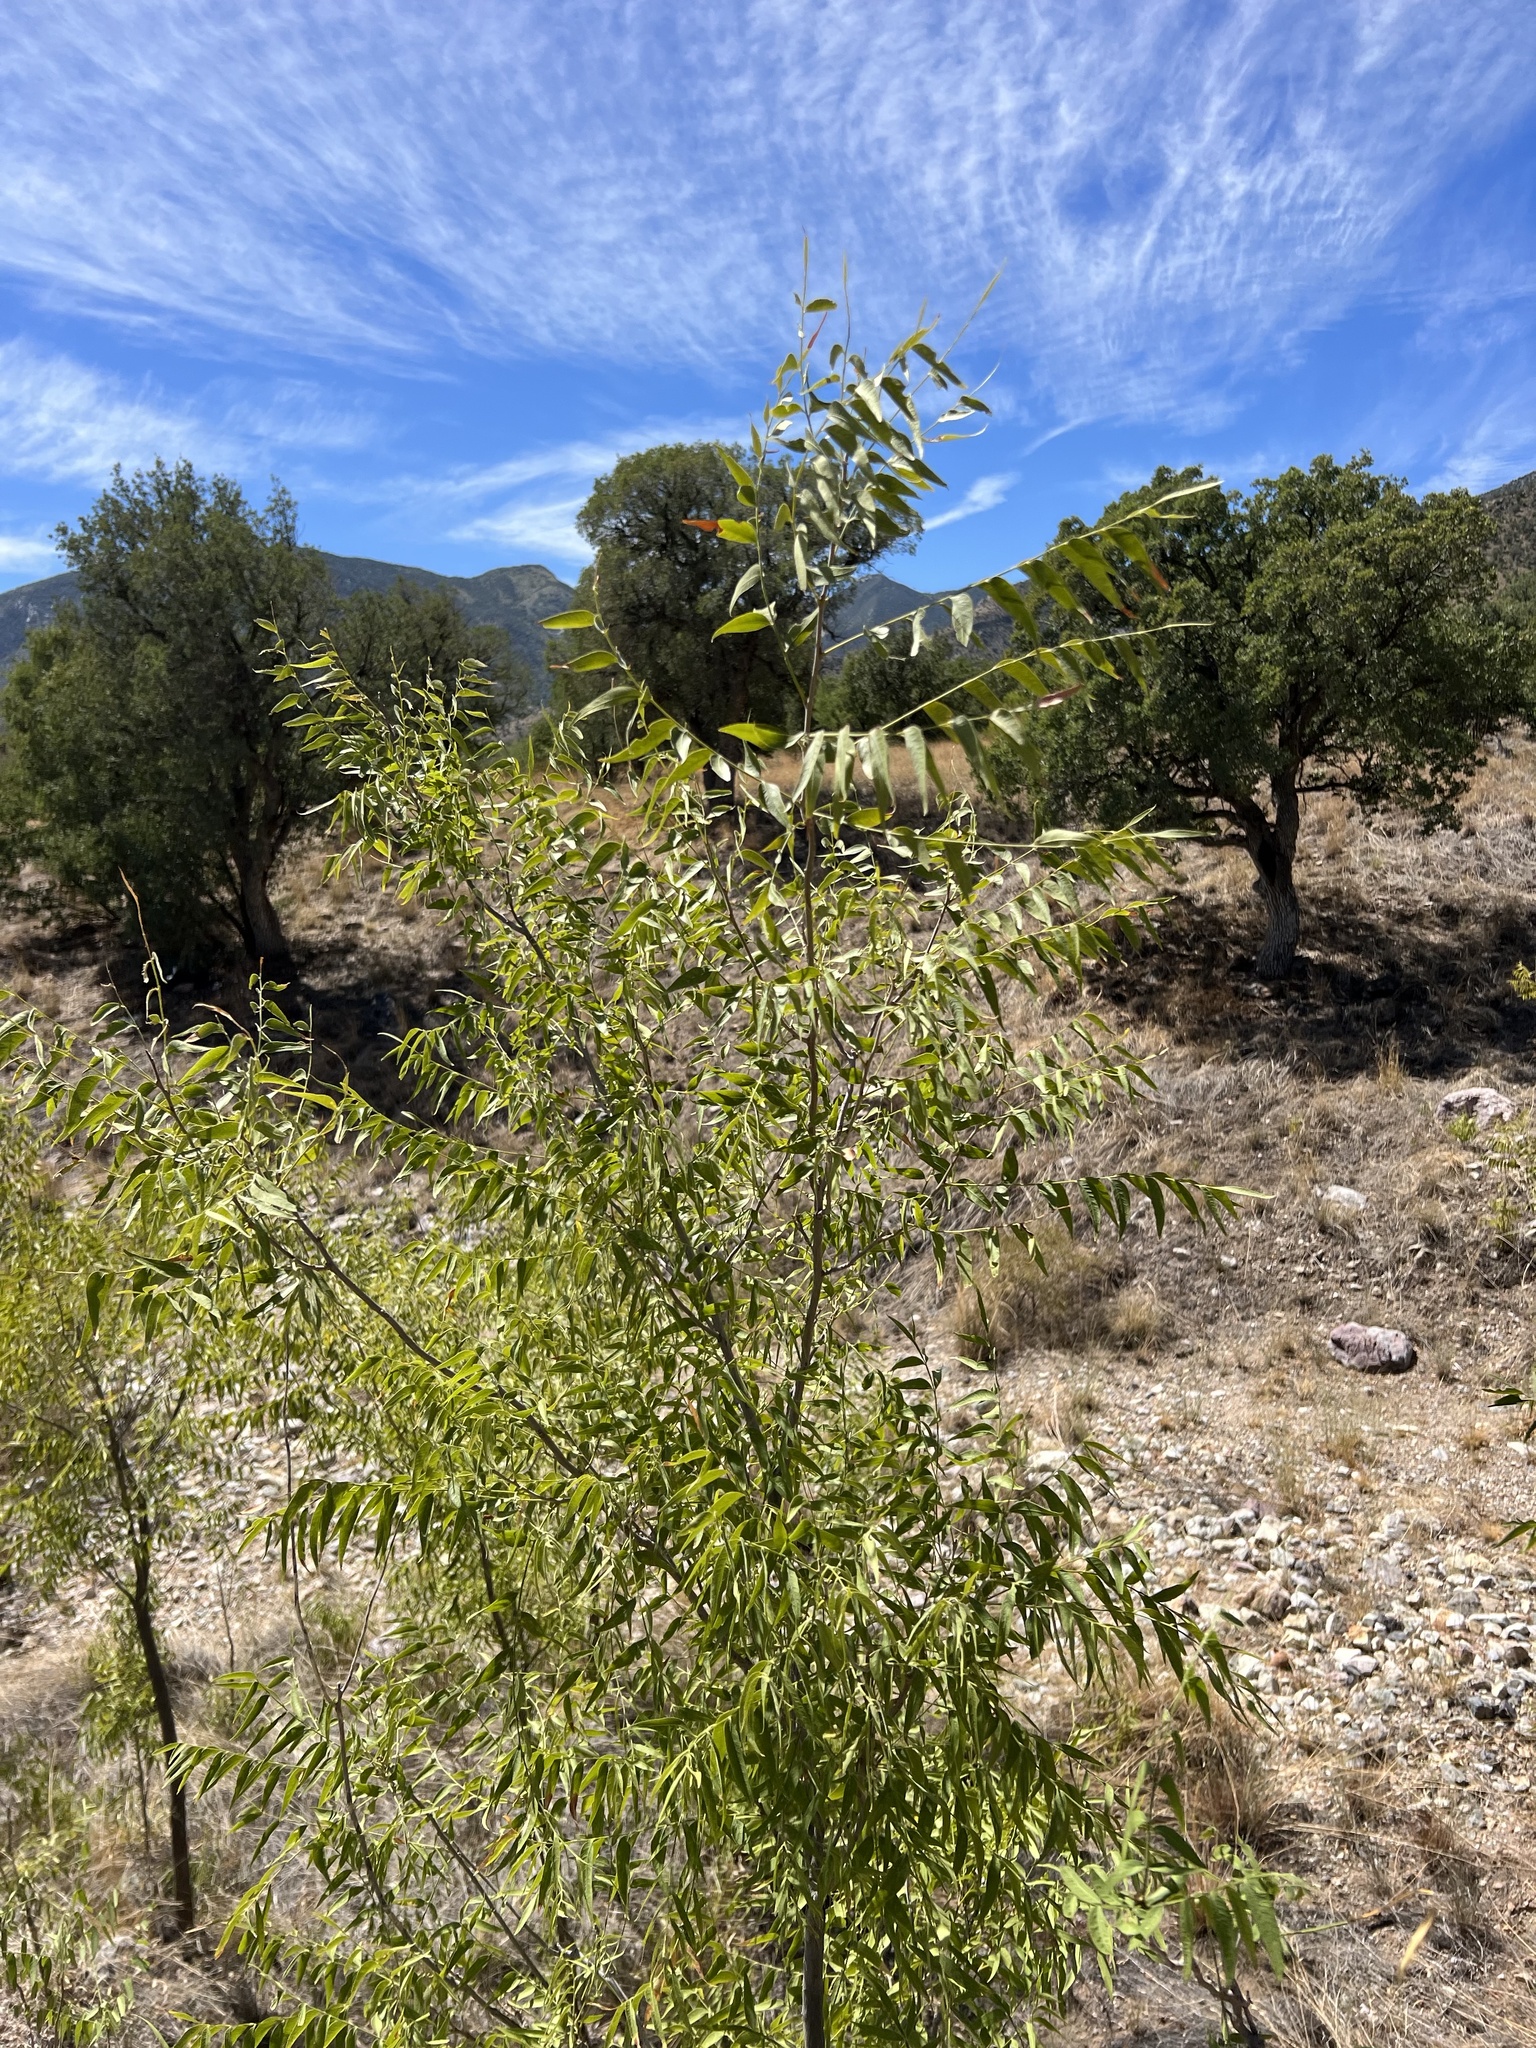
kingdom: Plantae
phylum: Tracheophyta
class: Magnoliopsida
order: Fagales
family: Juglandaceae
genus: Juglans
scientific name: Juglans major
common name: Arizona walnut
